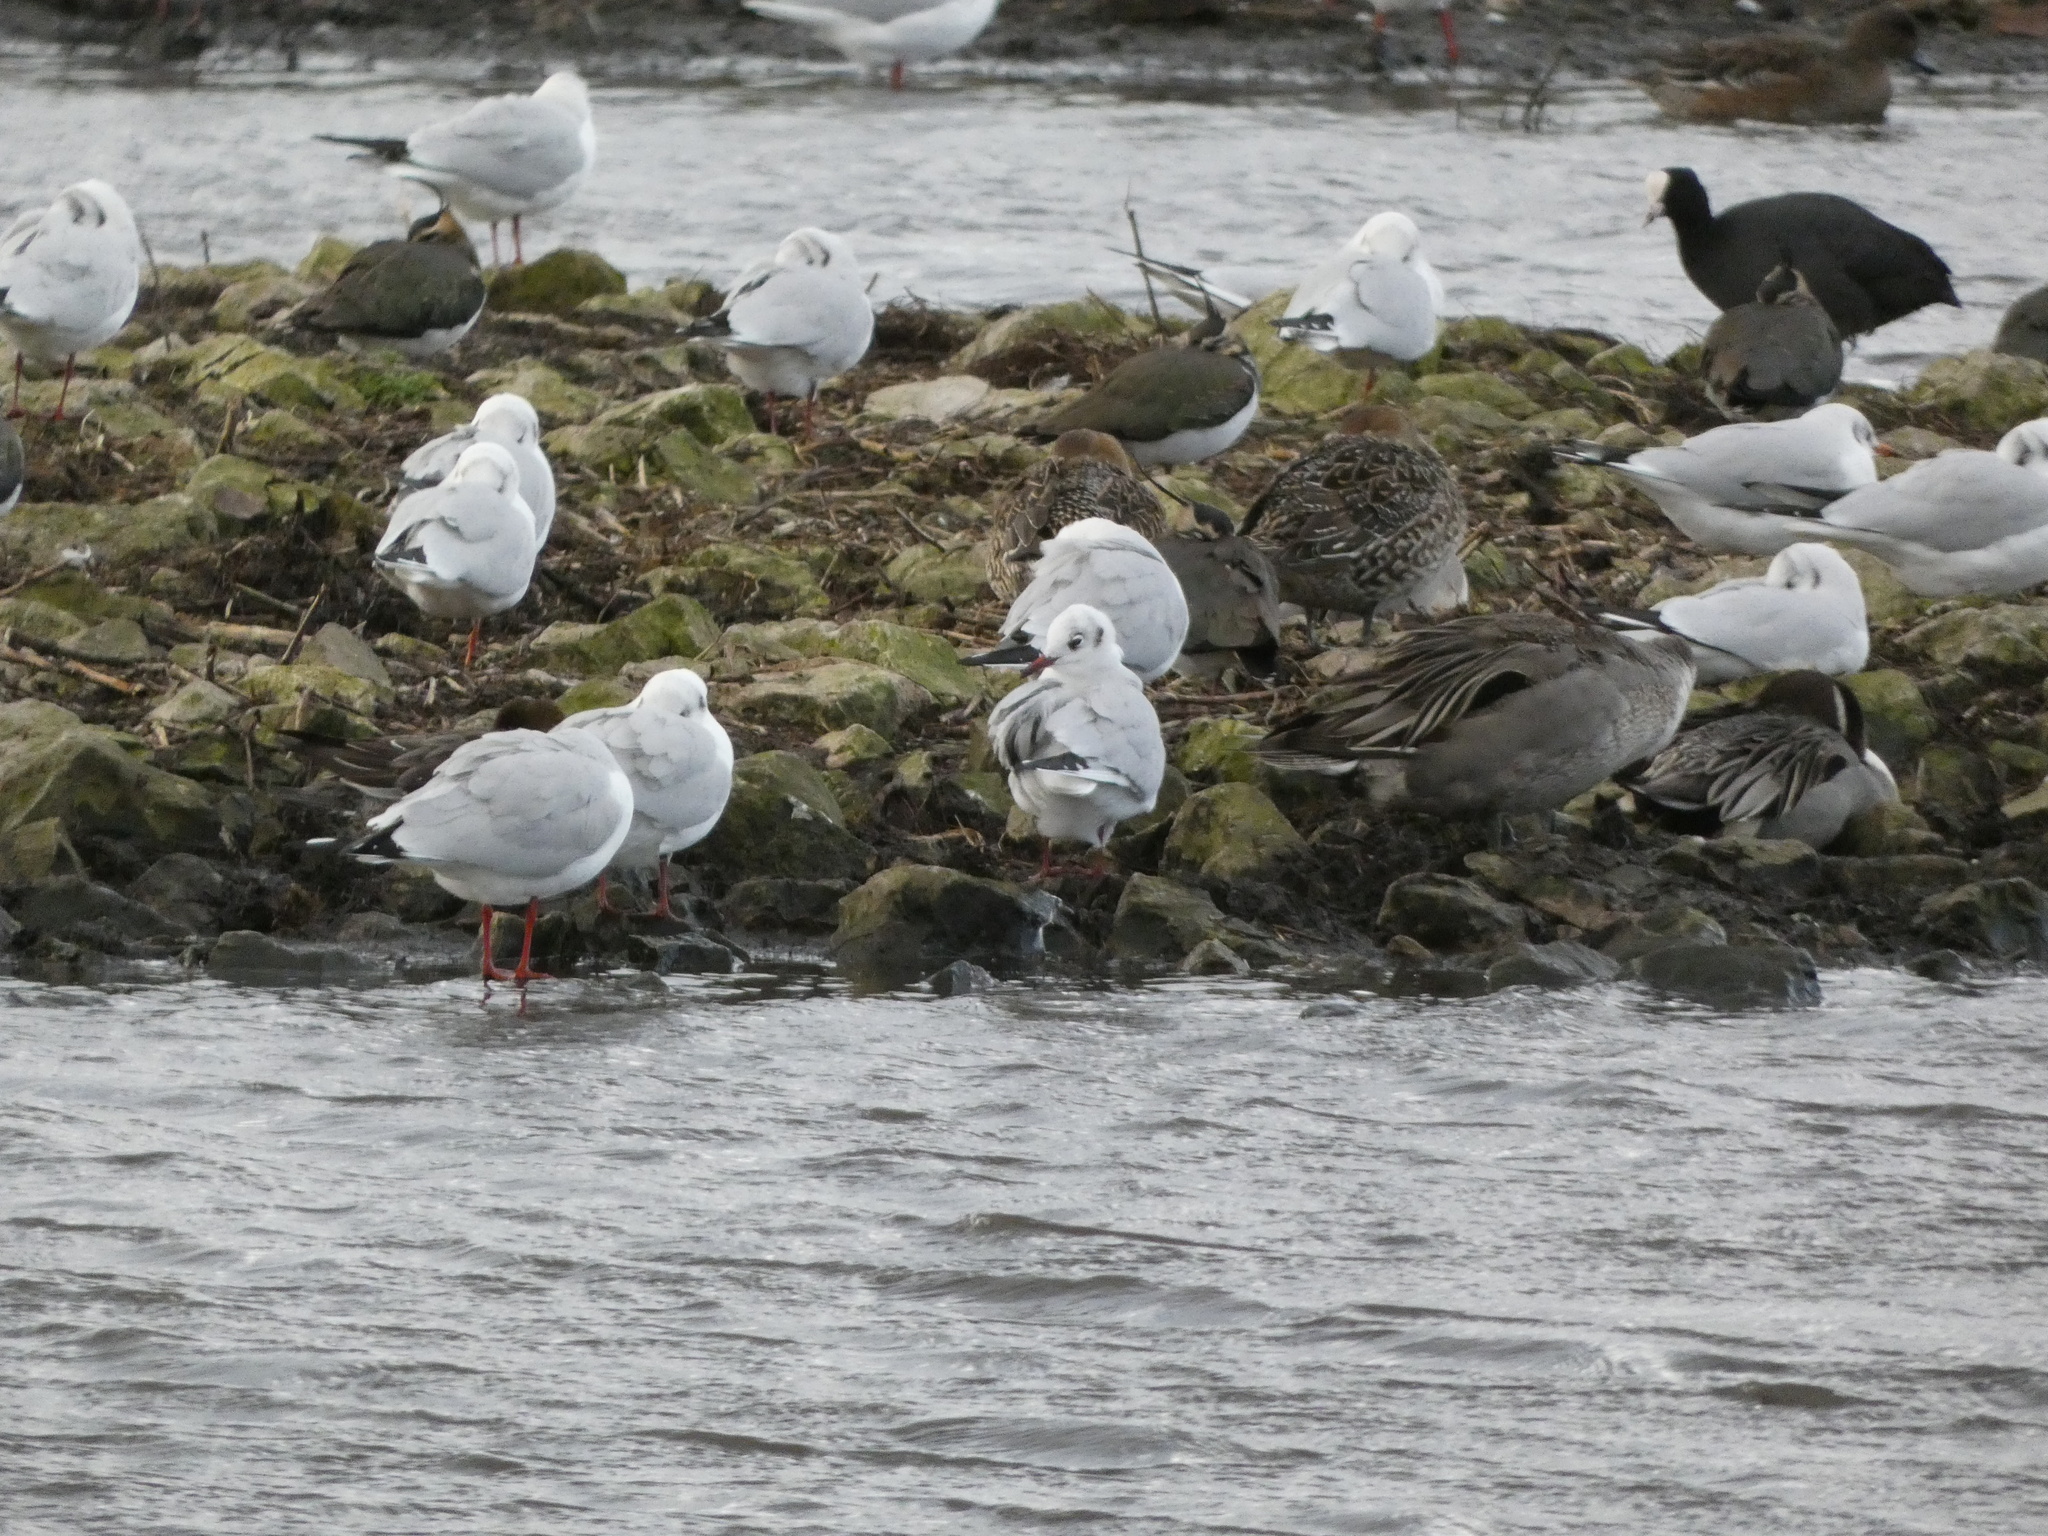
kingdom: Animalia
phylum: Chordata
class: Aves
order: Anseriformes
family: Anatidae
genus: Anas
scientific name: Anas acuta
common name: Northern pintail
